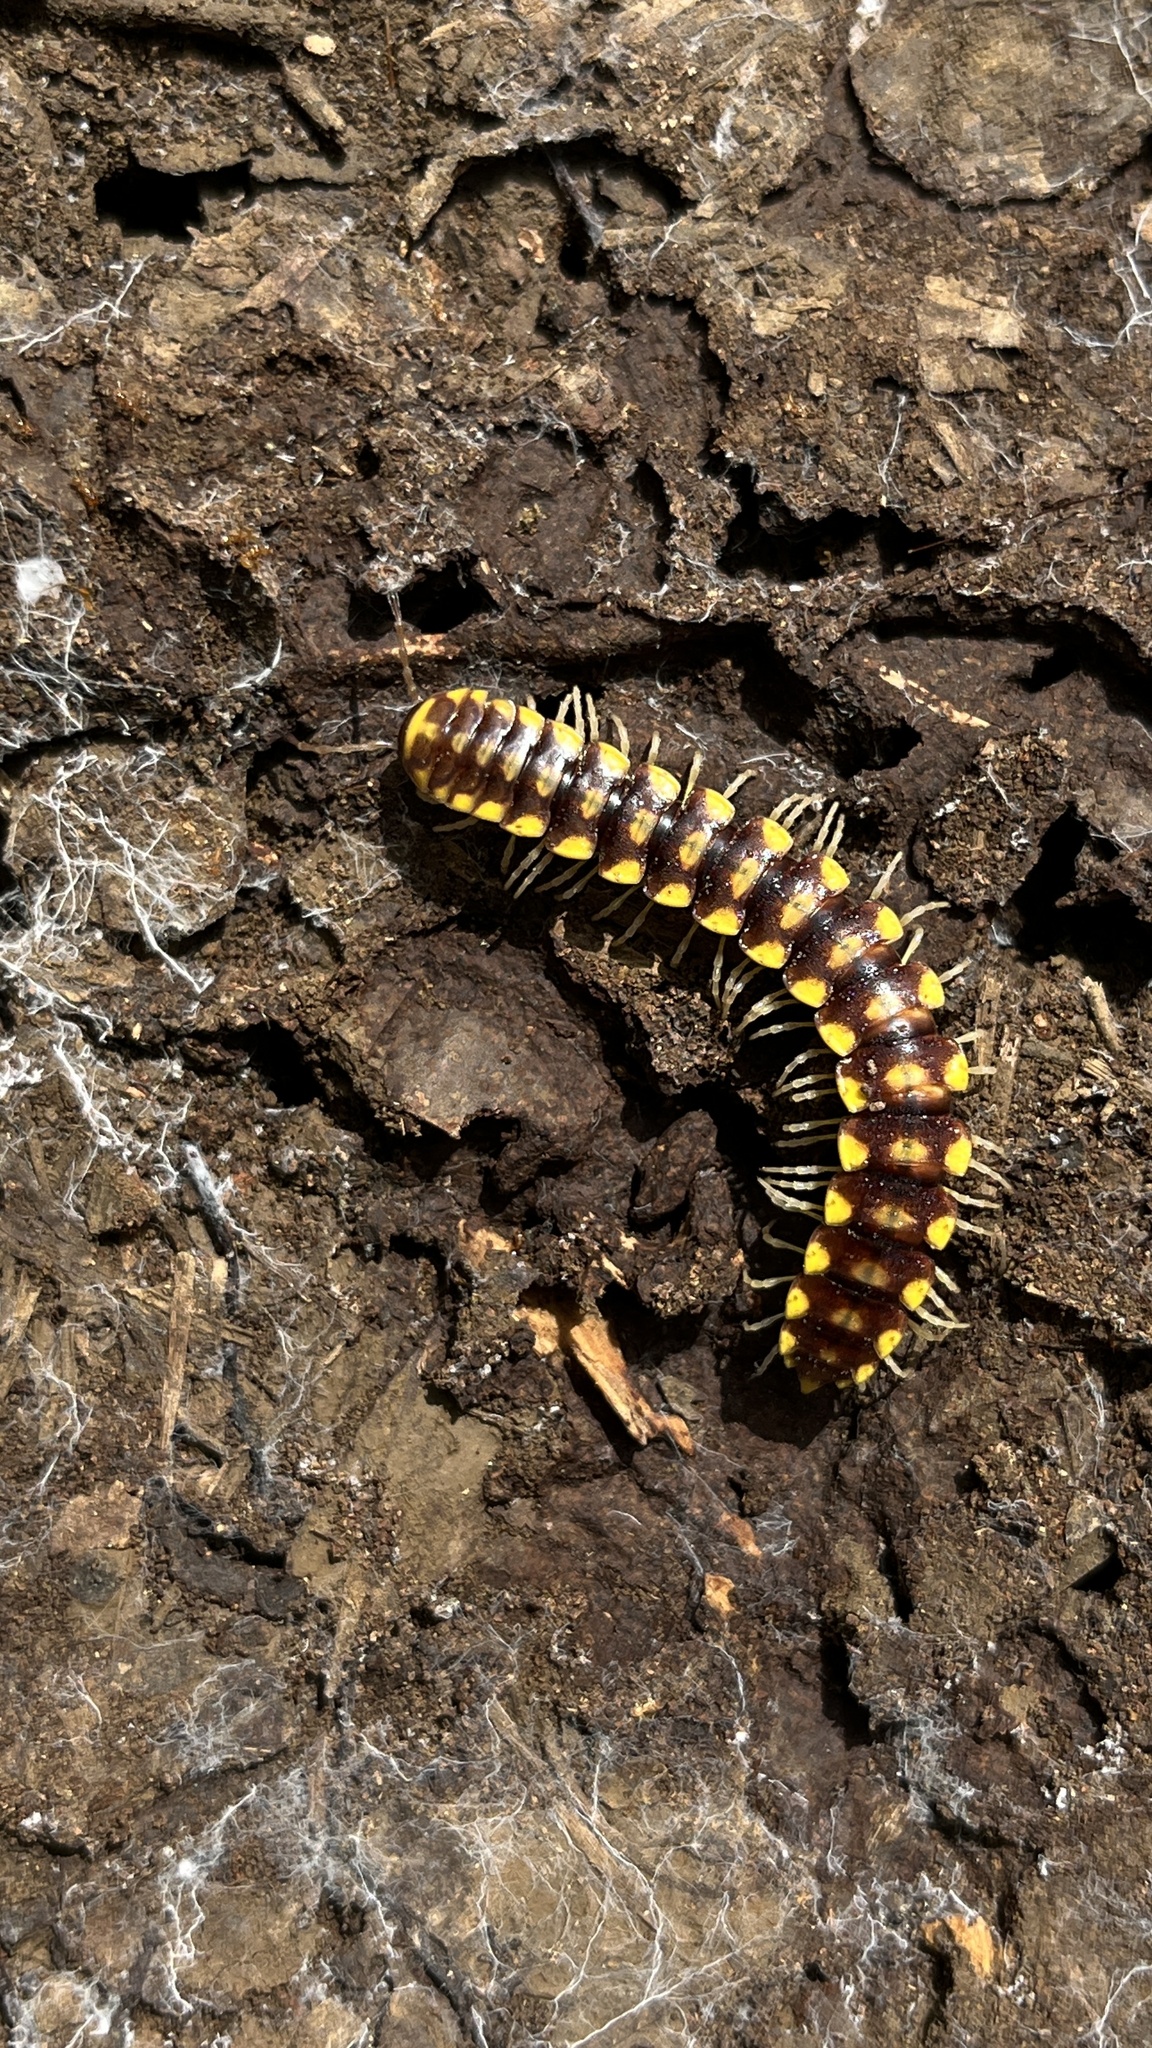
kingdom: Animalia
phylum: Arthropoda
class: Diplopoda
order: Polydesmida
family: Xystodesmidae
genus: Melaphe
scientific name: Melaphe vestita
